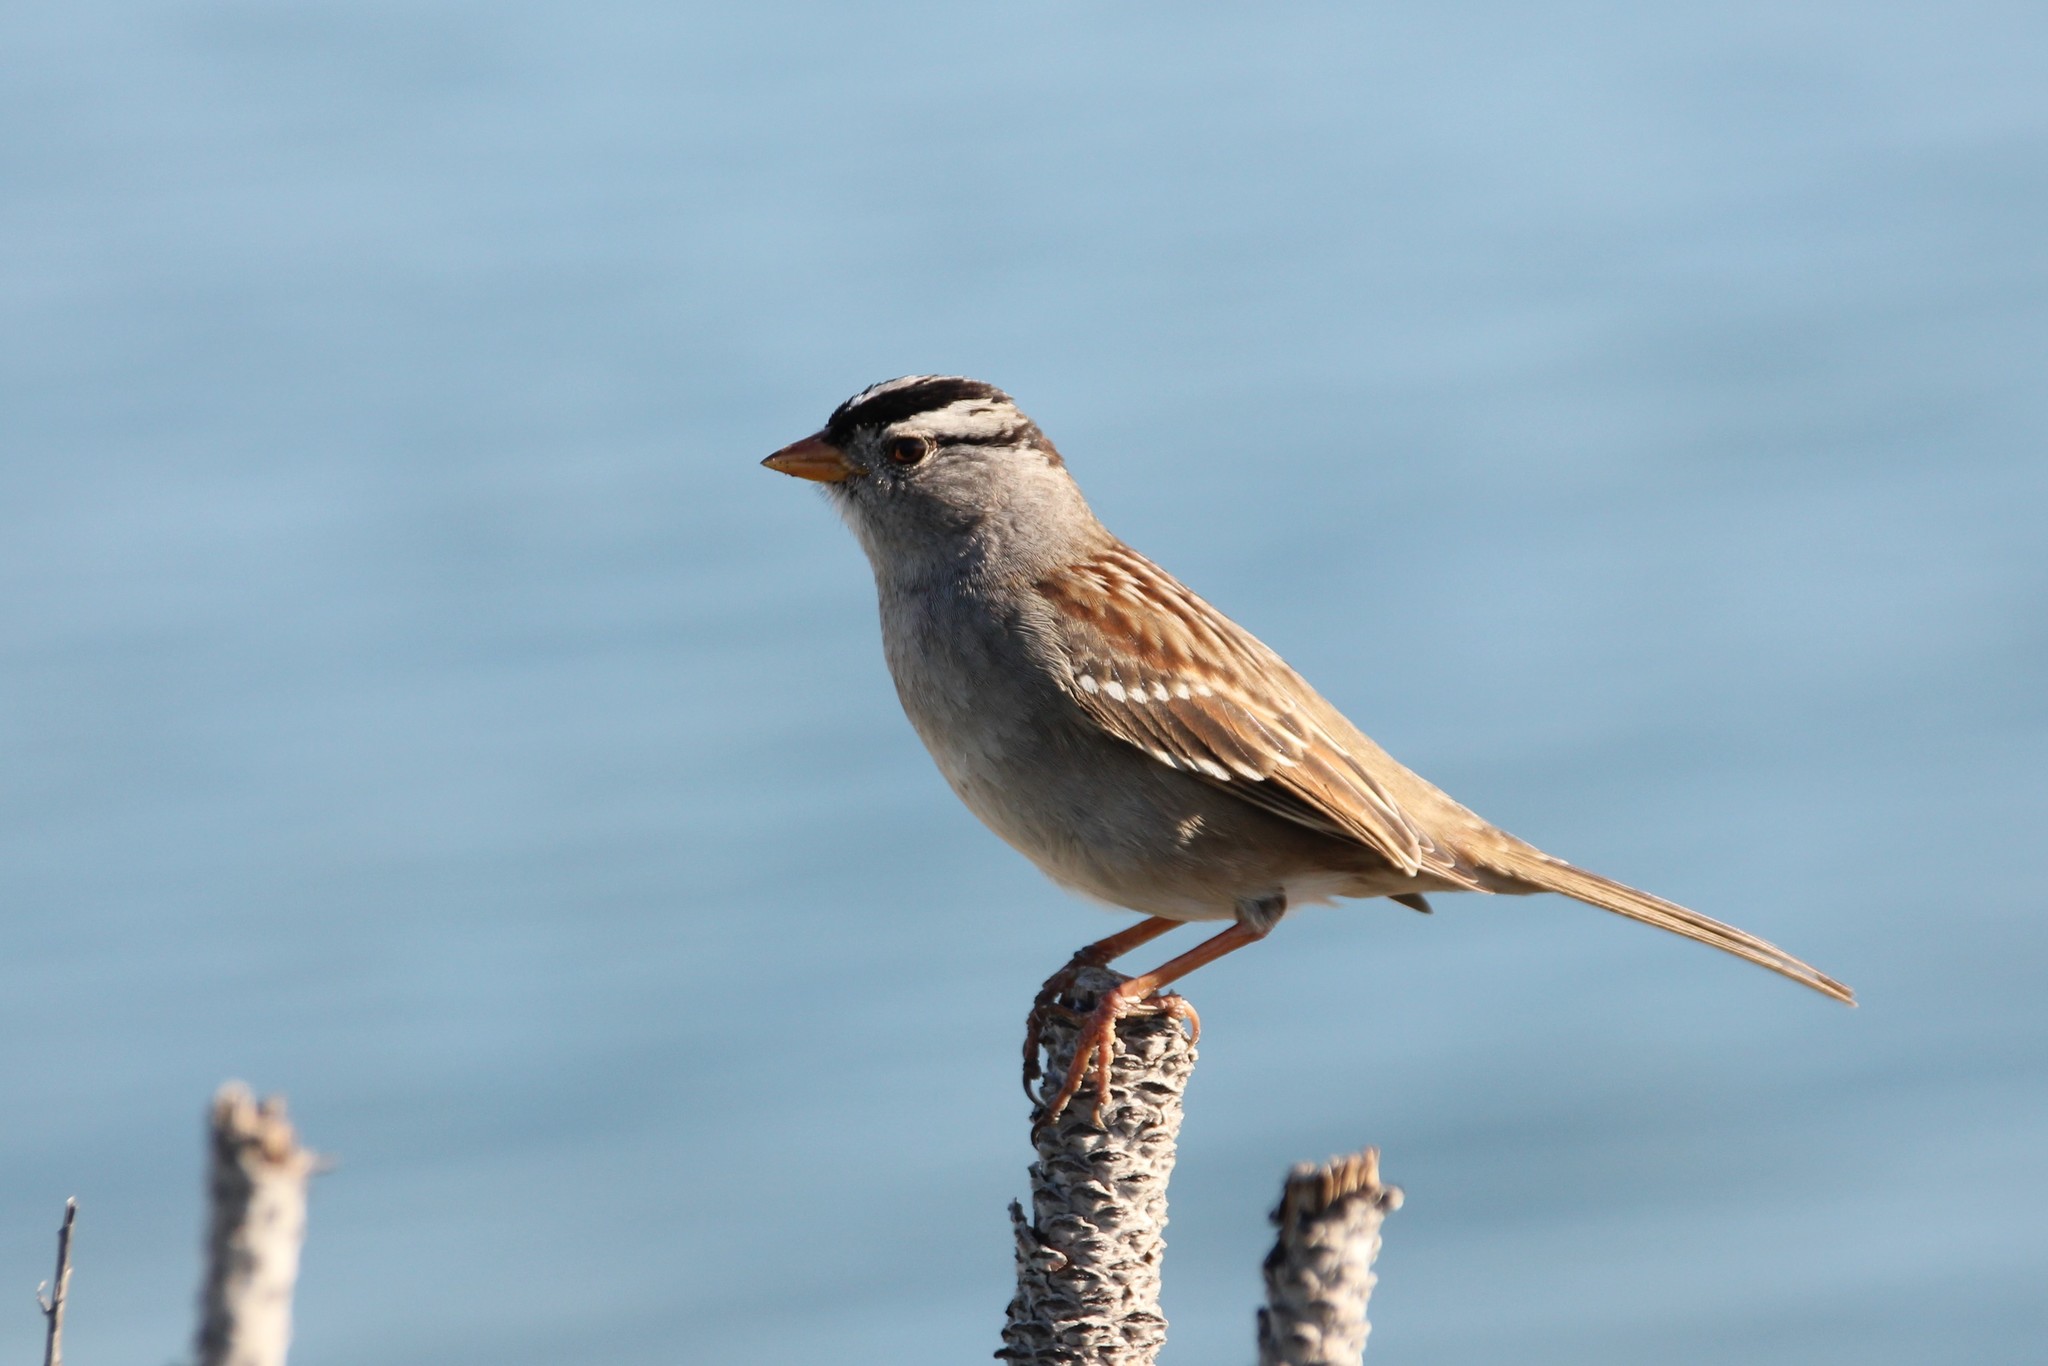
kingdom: Animalia
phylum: Chordata
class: Aves
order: Passeriformes
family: Passerellidae
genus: Zonotrichia
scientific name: Zonotrichia leucophrys
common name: White-crowned sparrow
